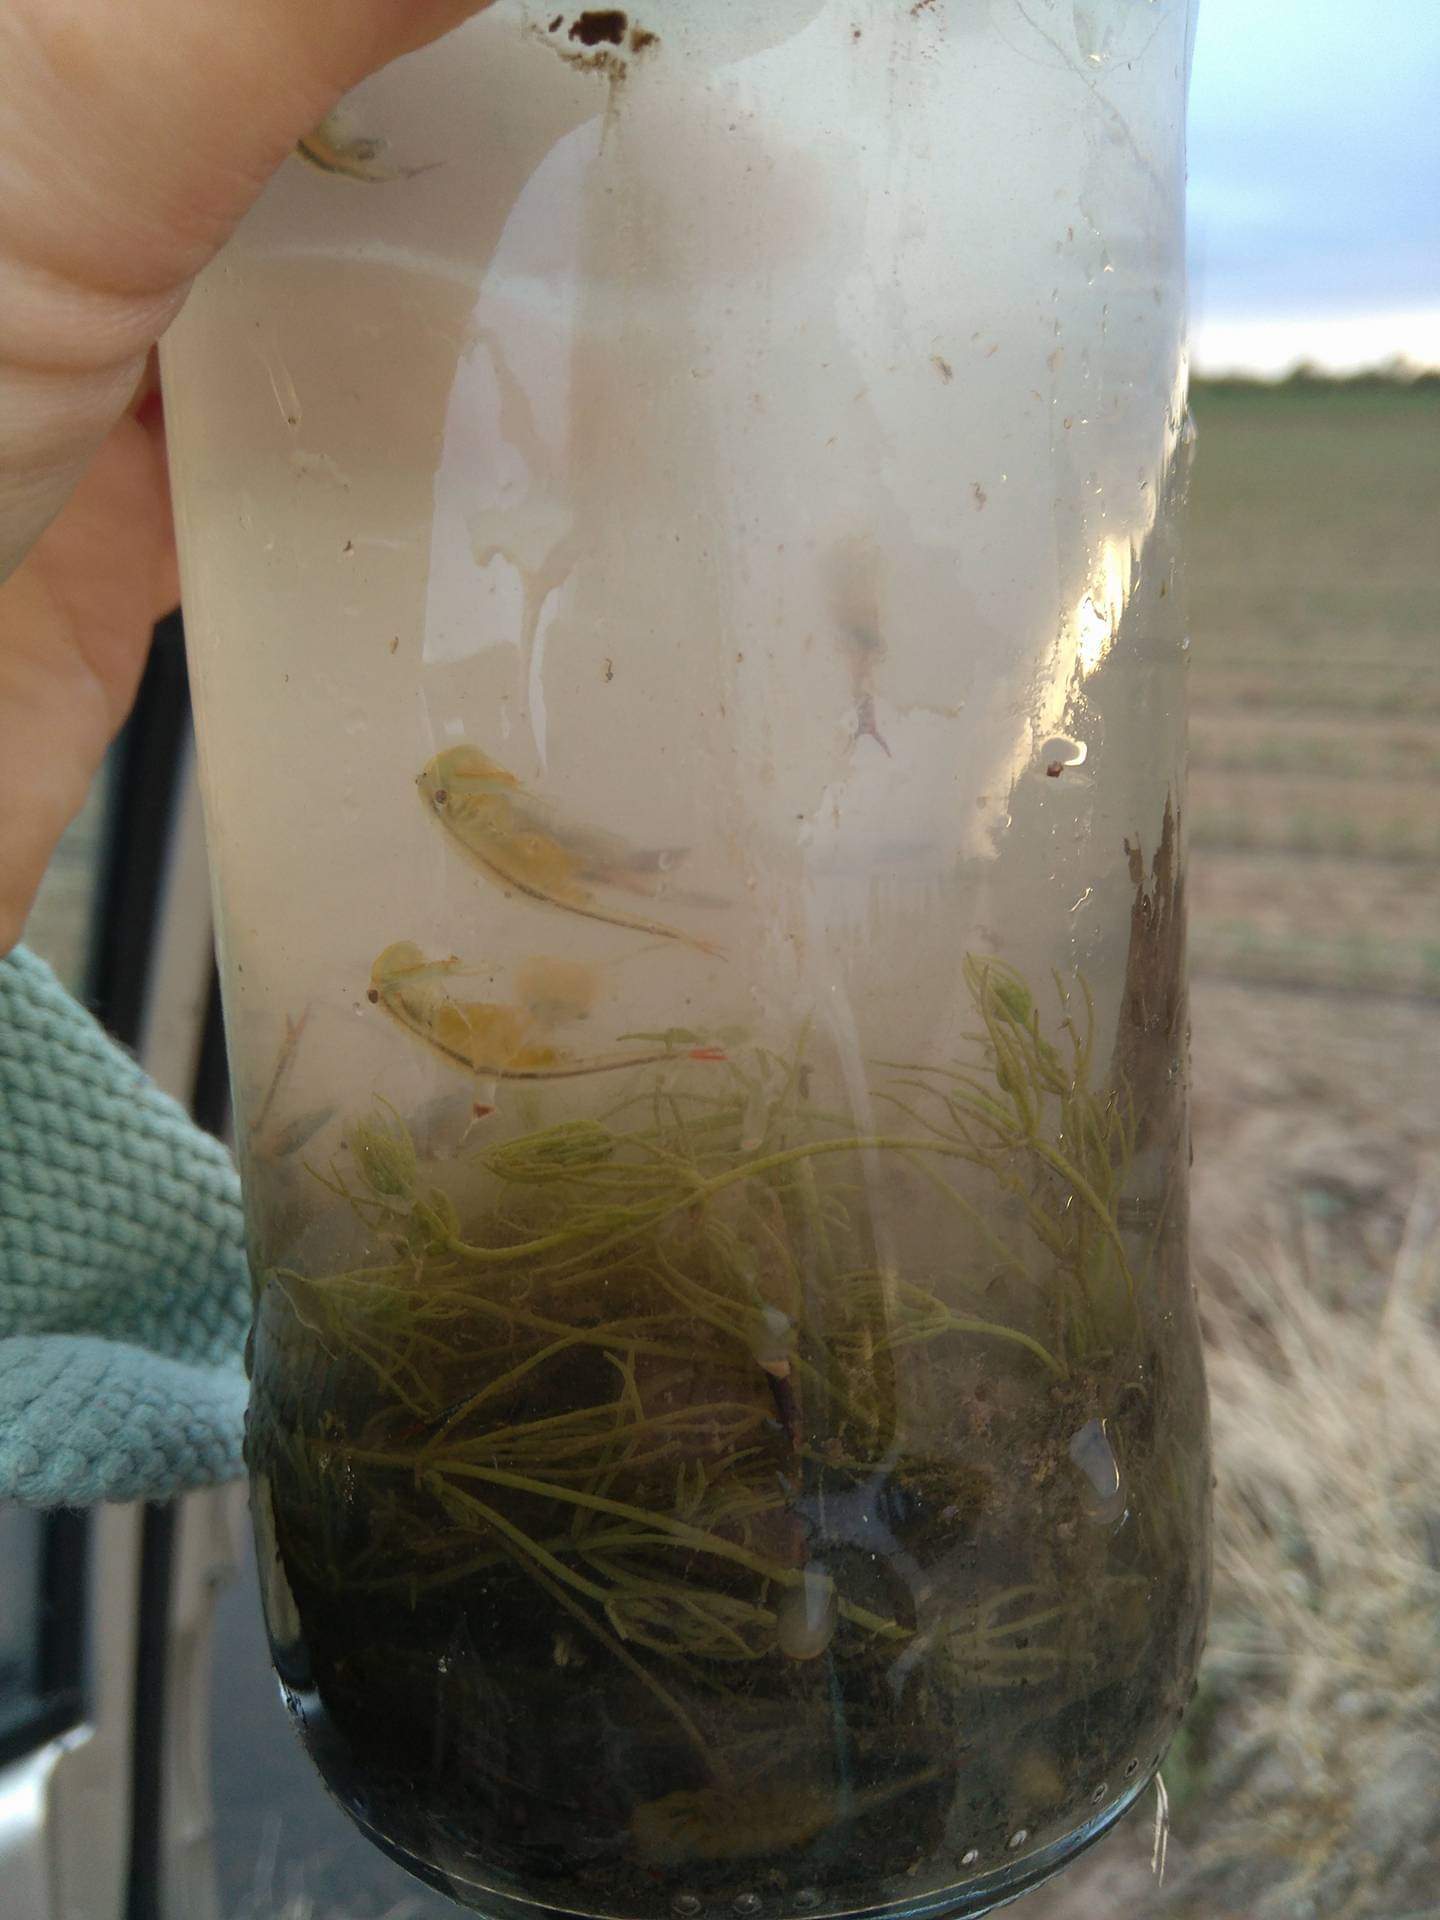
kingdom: Animalia
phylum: Arthropoda
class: Branchiopoda
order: Anostraca
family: Chirocephalidae
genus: Chirocephalus
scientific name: Chirocephalus diaphanus
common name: Fairy shrimp
